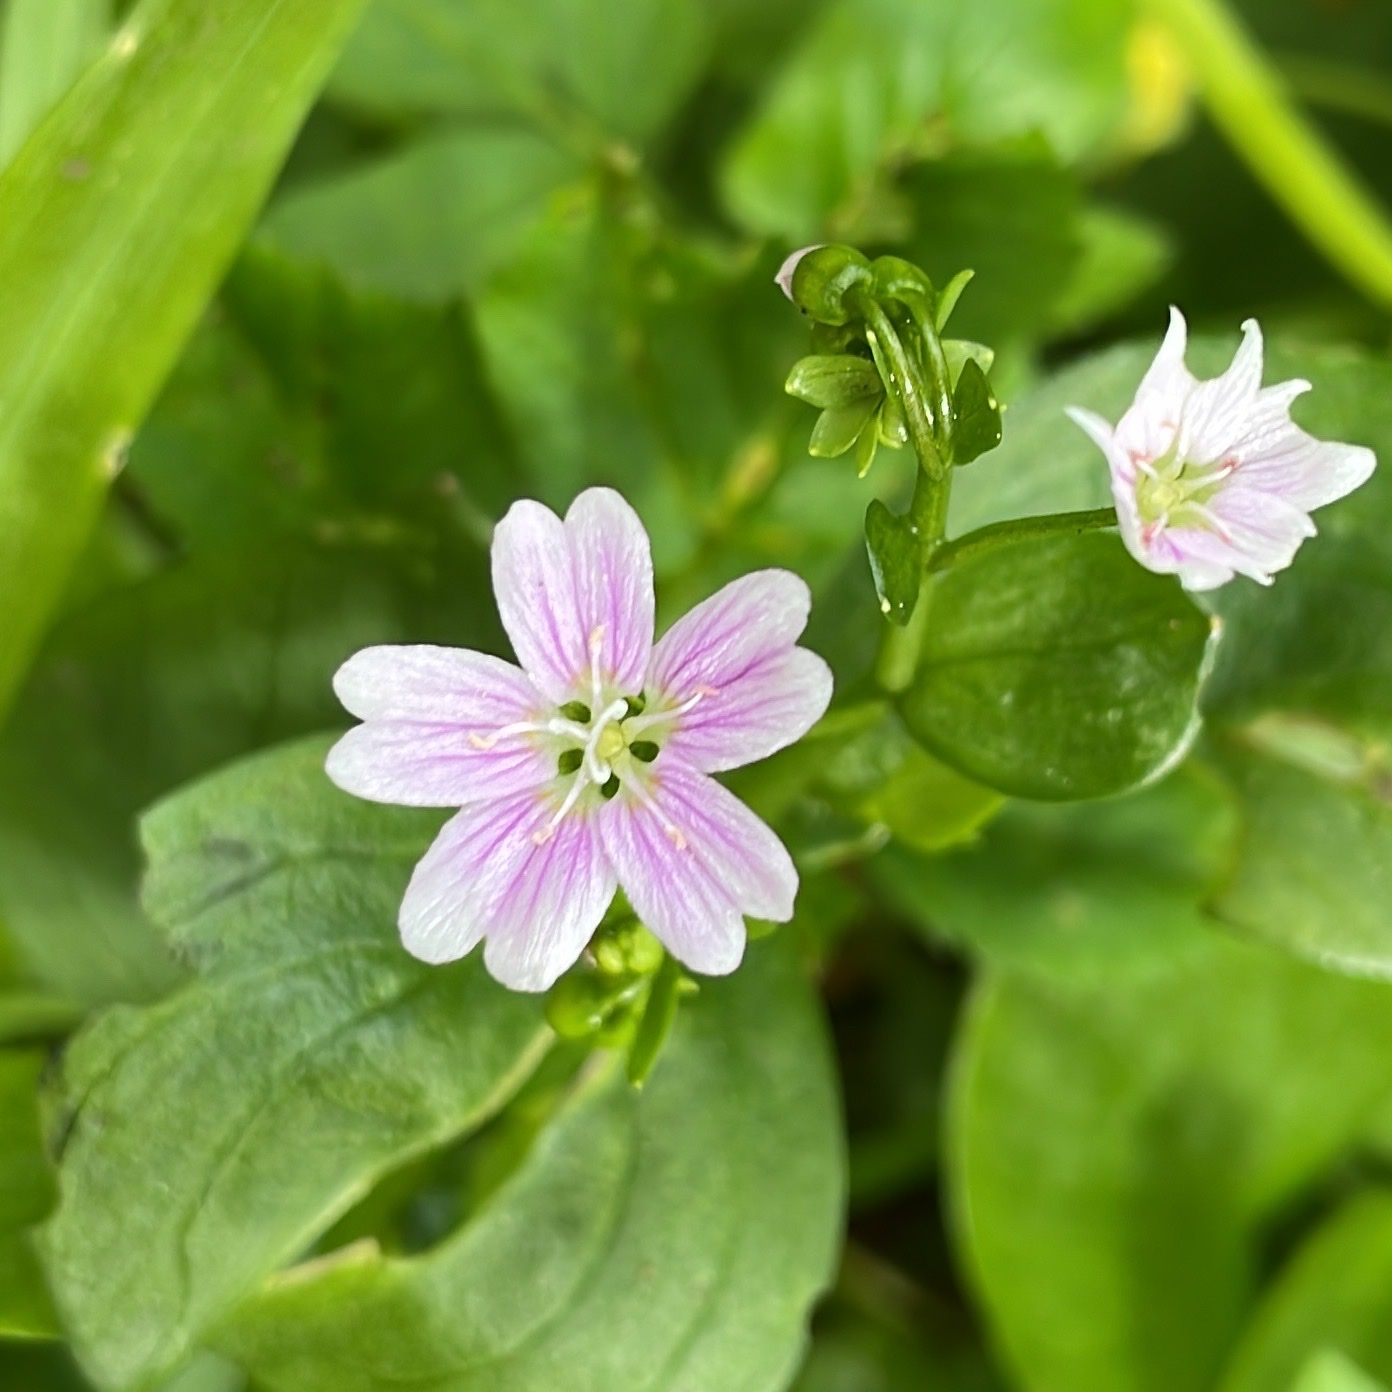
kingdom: Plantae
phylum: Tracheophyta
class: Magnoliopsida
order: Caryophyllales
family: Montiaceae
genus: Claytonia
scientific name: Claytonia sibirica
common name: Pink purslane
